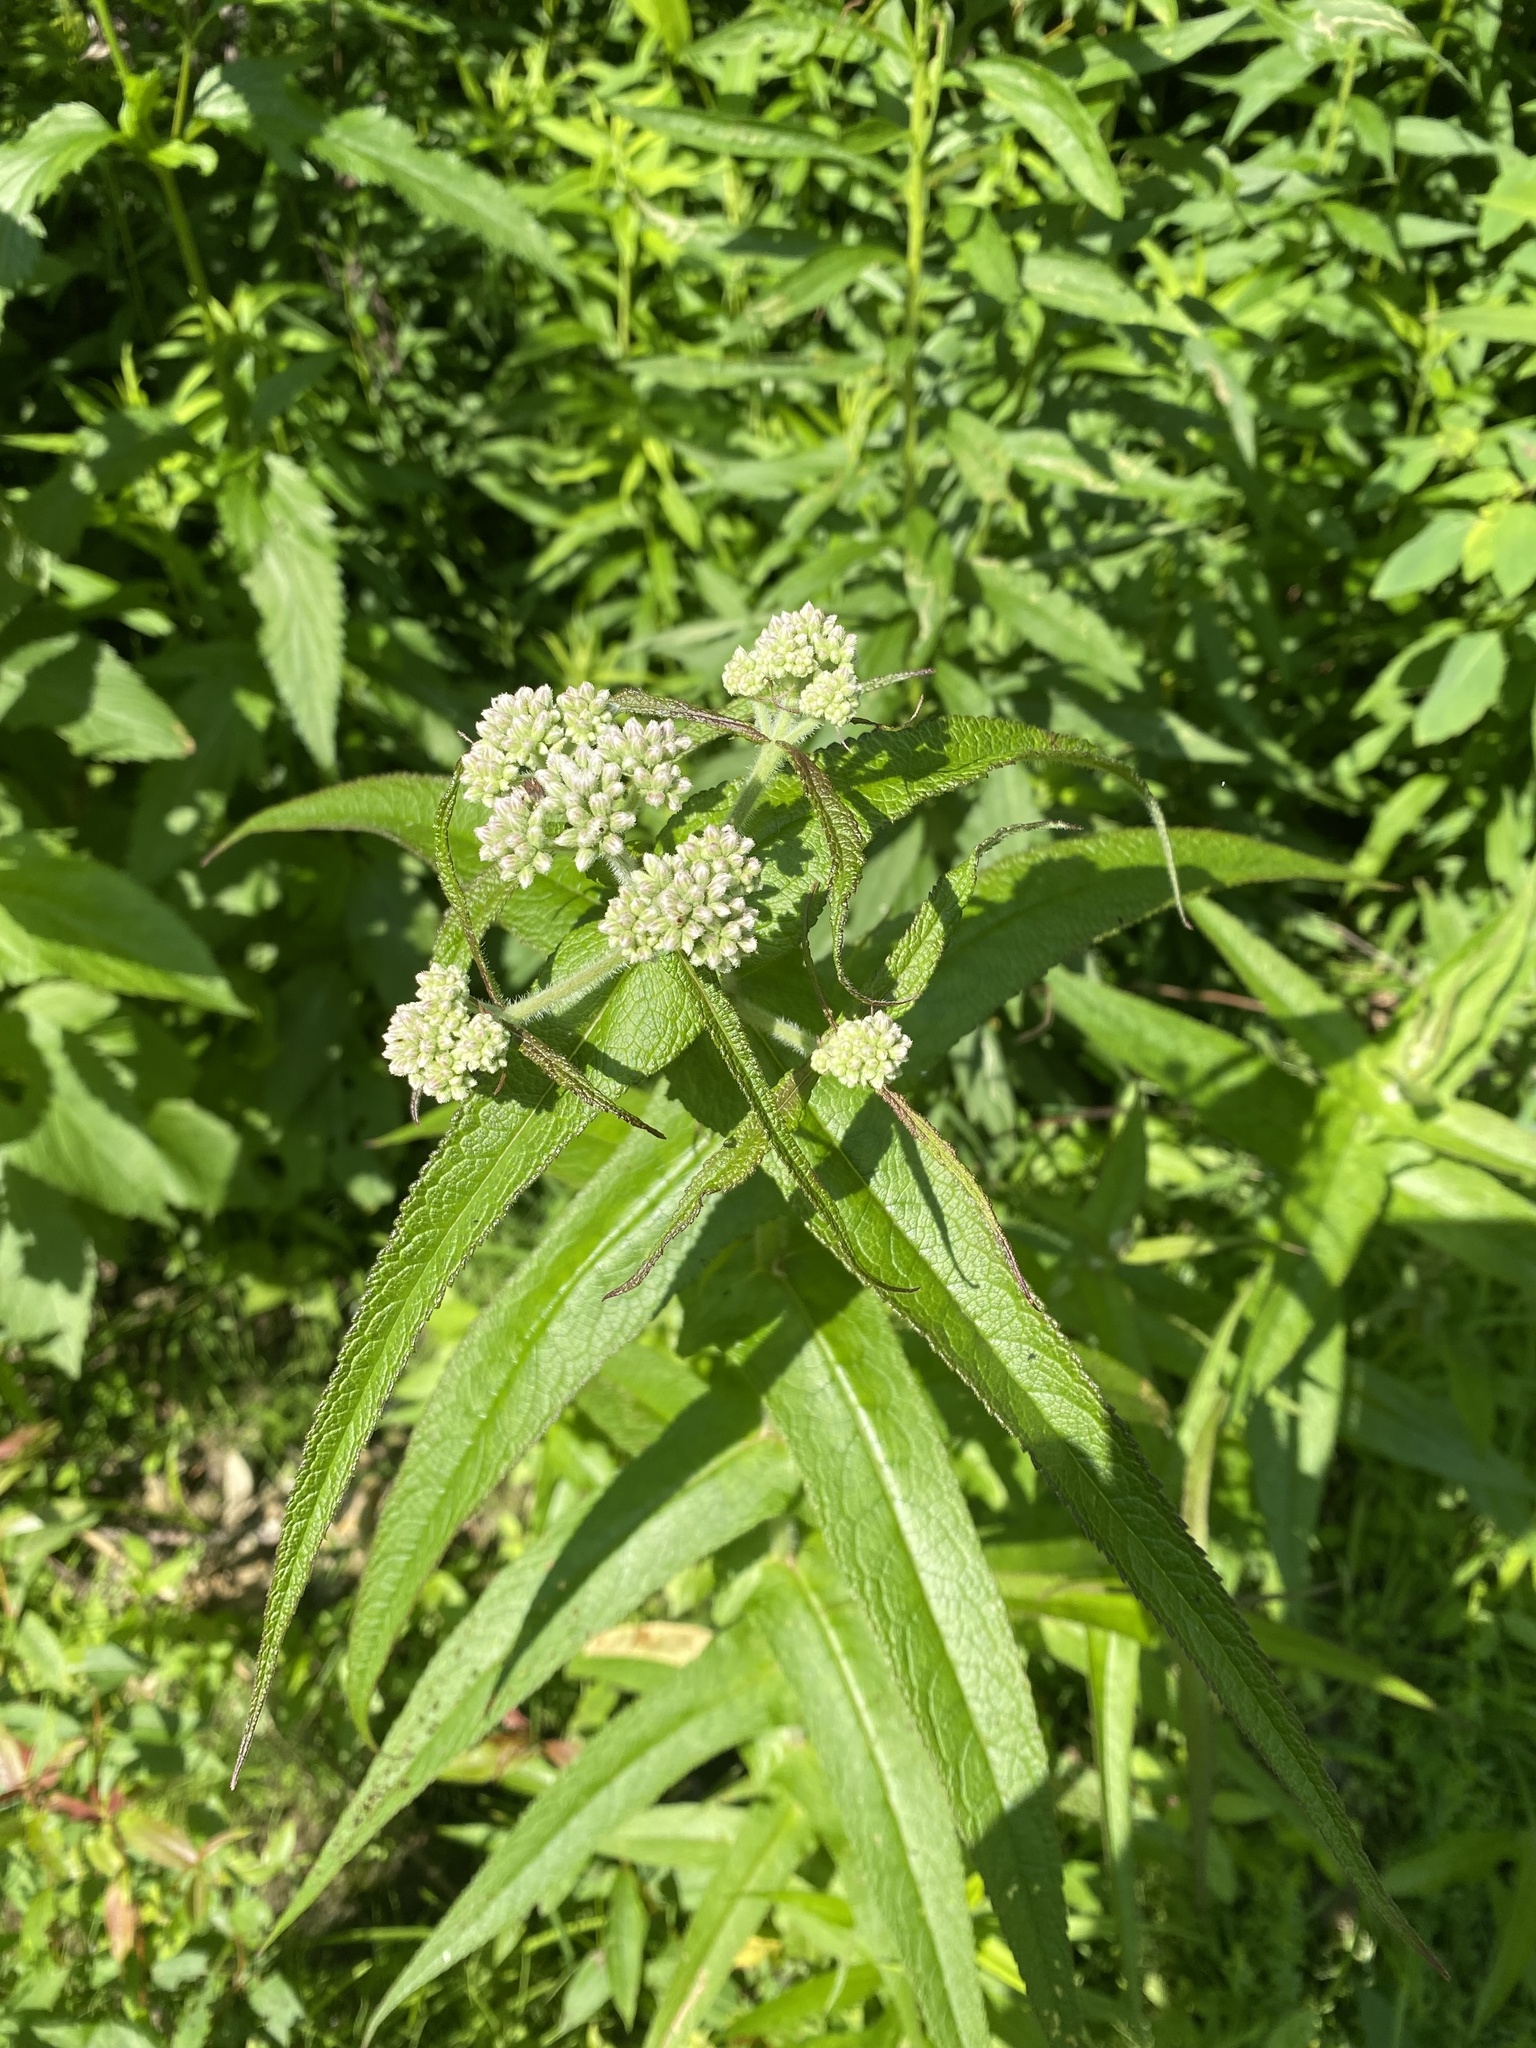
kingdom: Plantae
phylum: Tracheophyta
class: Magnoliopsida
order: Asterales
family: Asteraceae
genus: Eupatorium
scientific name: Eupatorium perfoliatum
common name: Boneset
